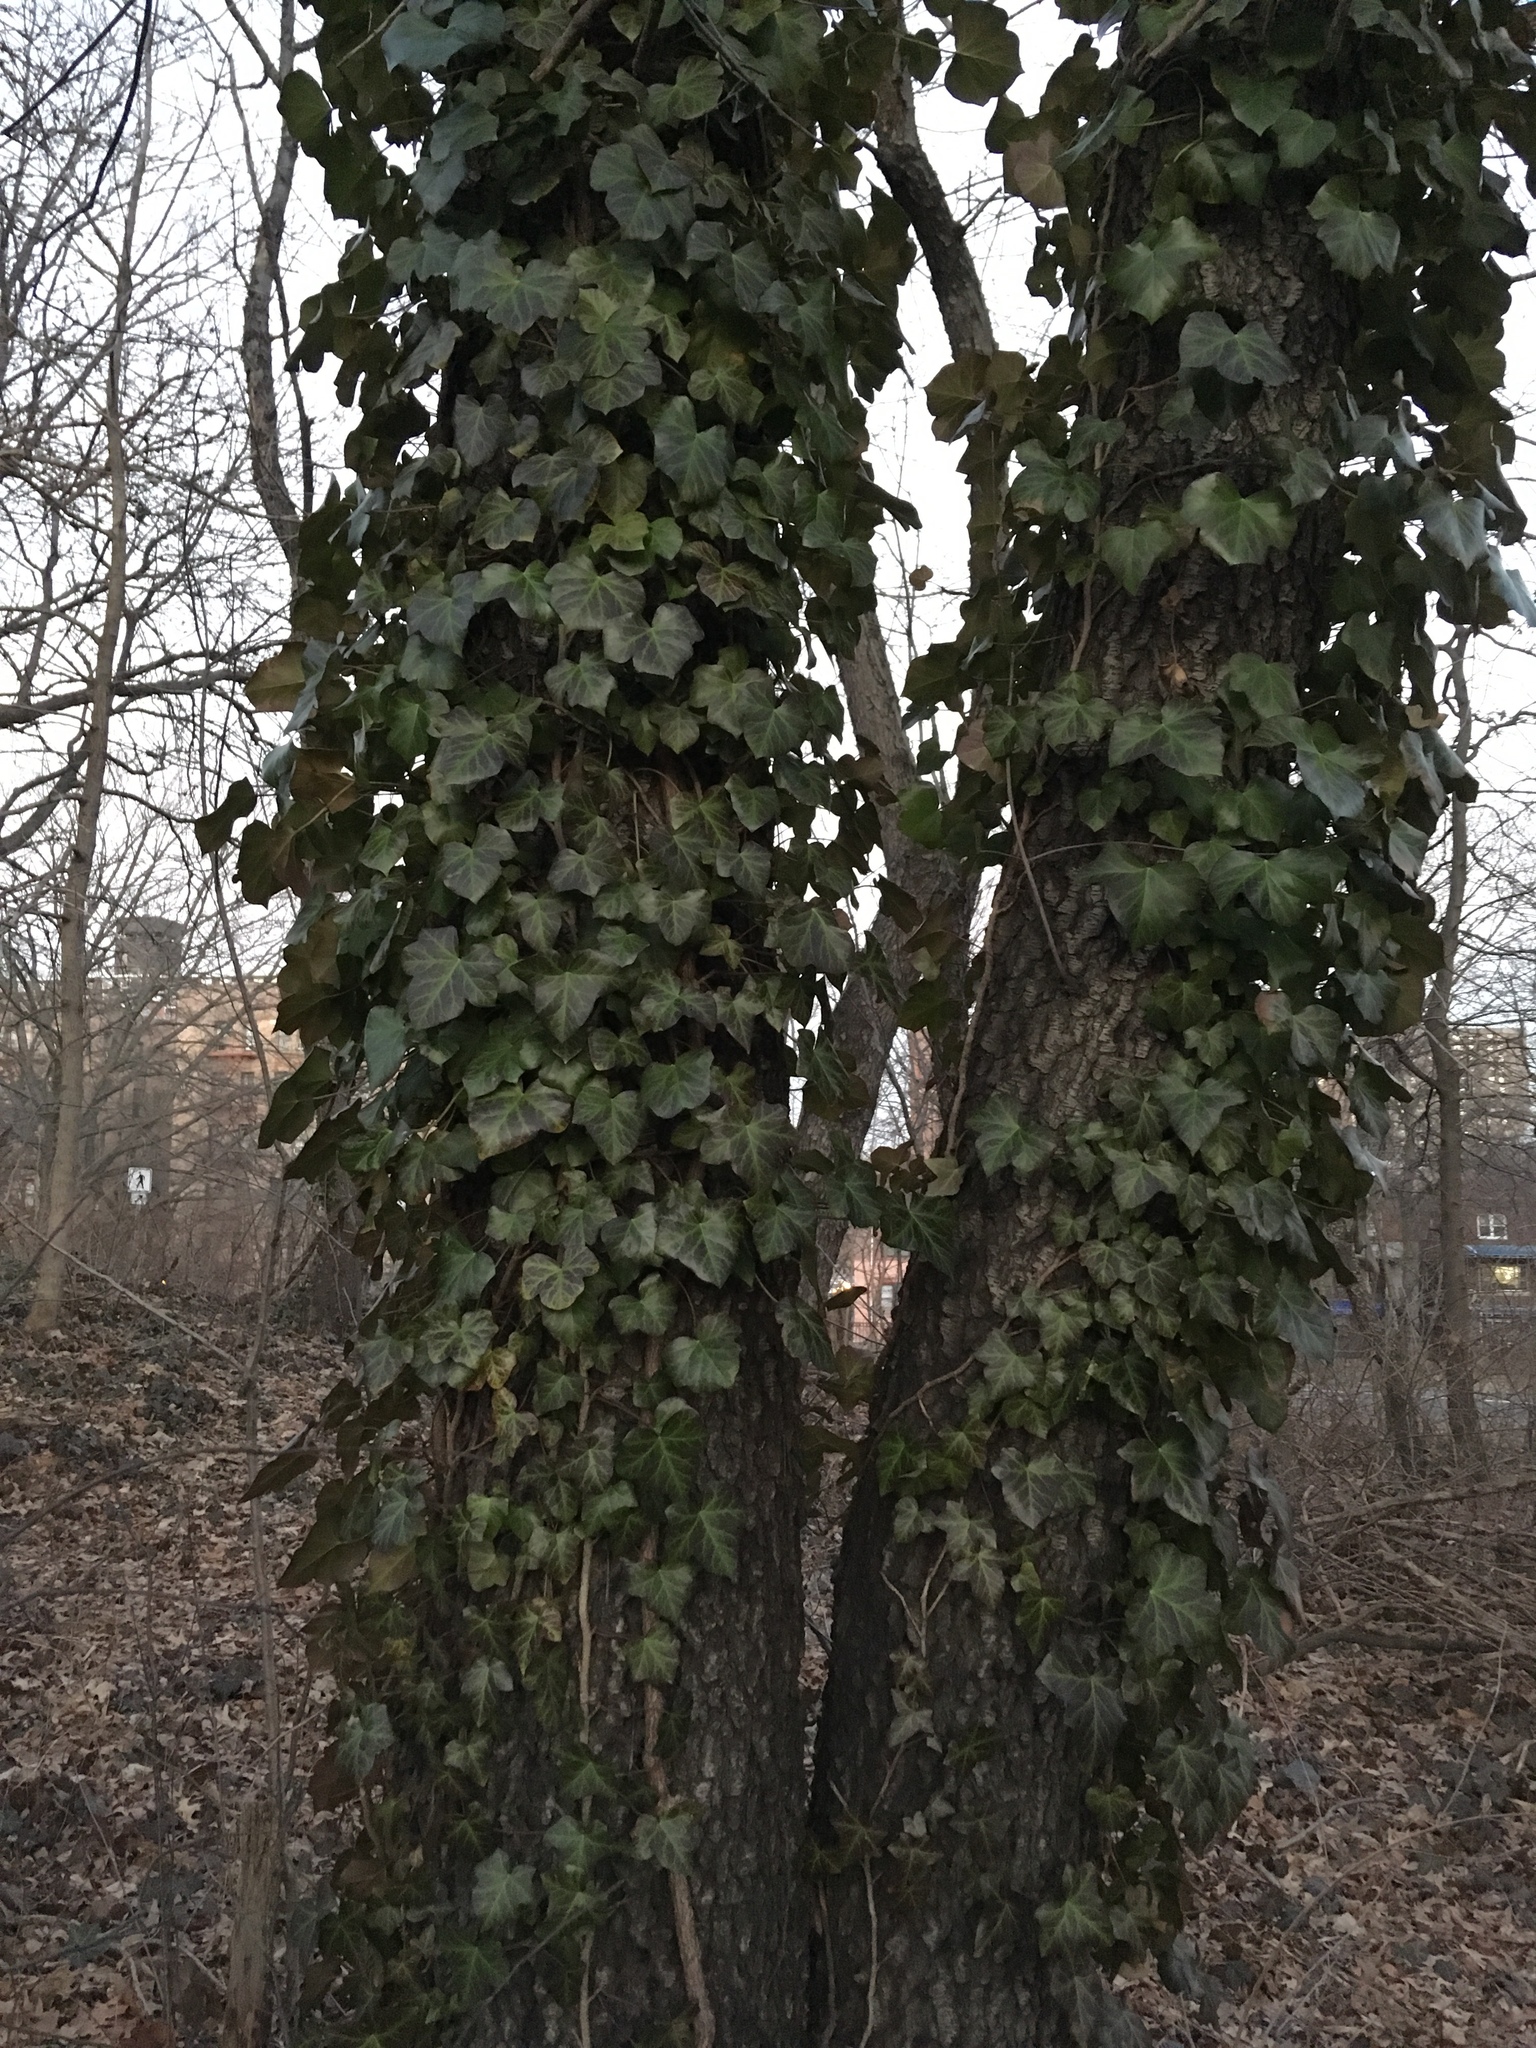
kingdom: Plantae
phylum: Tracheophyta
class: Magnoliopsida
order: Apiales
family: Araliaceae
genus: Hedera
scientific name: Hedera helix
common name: Ivy
